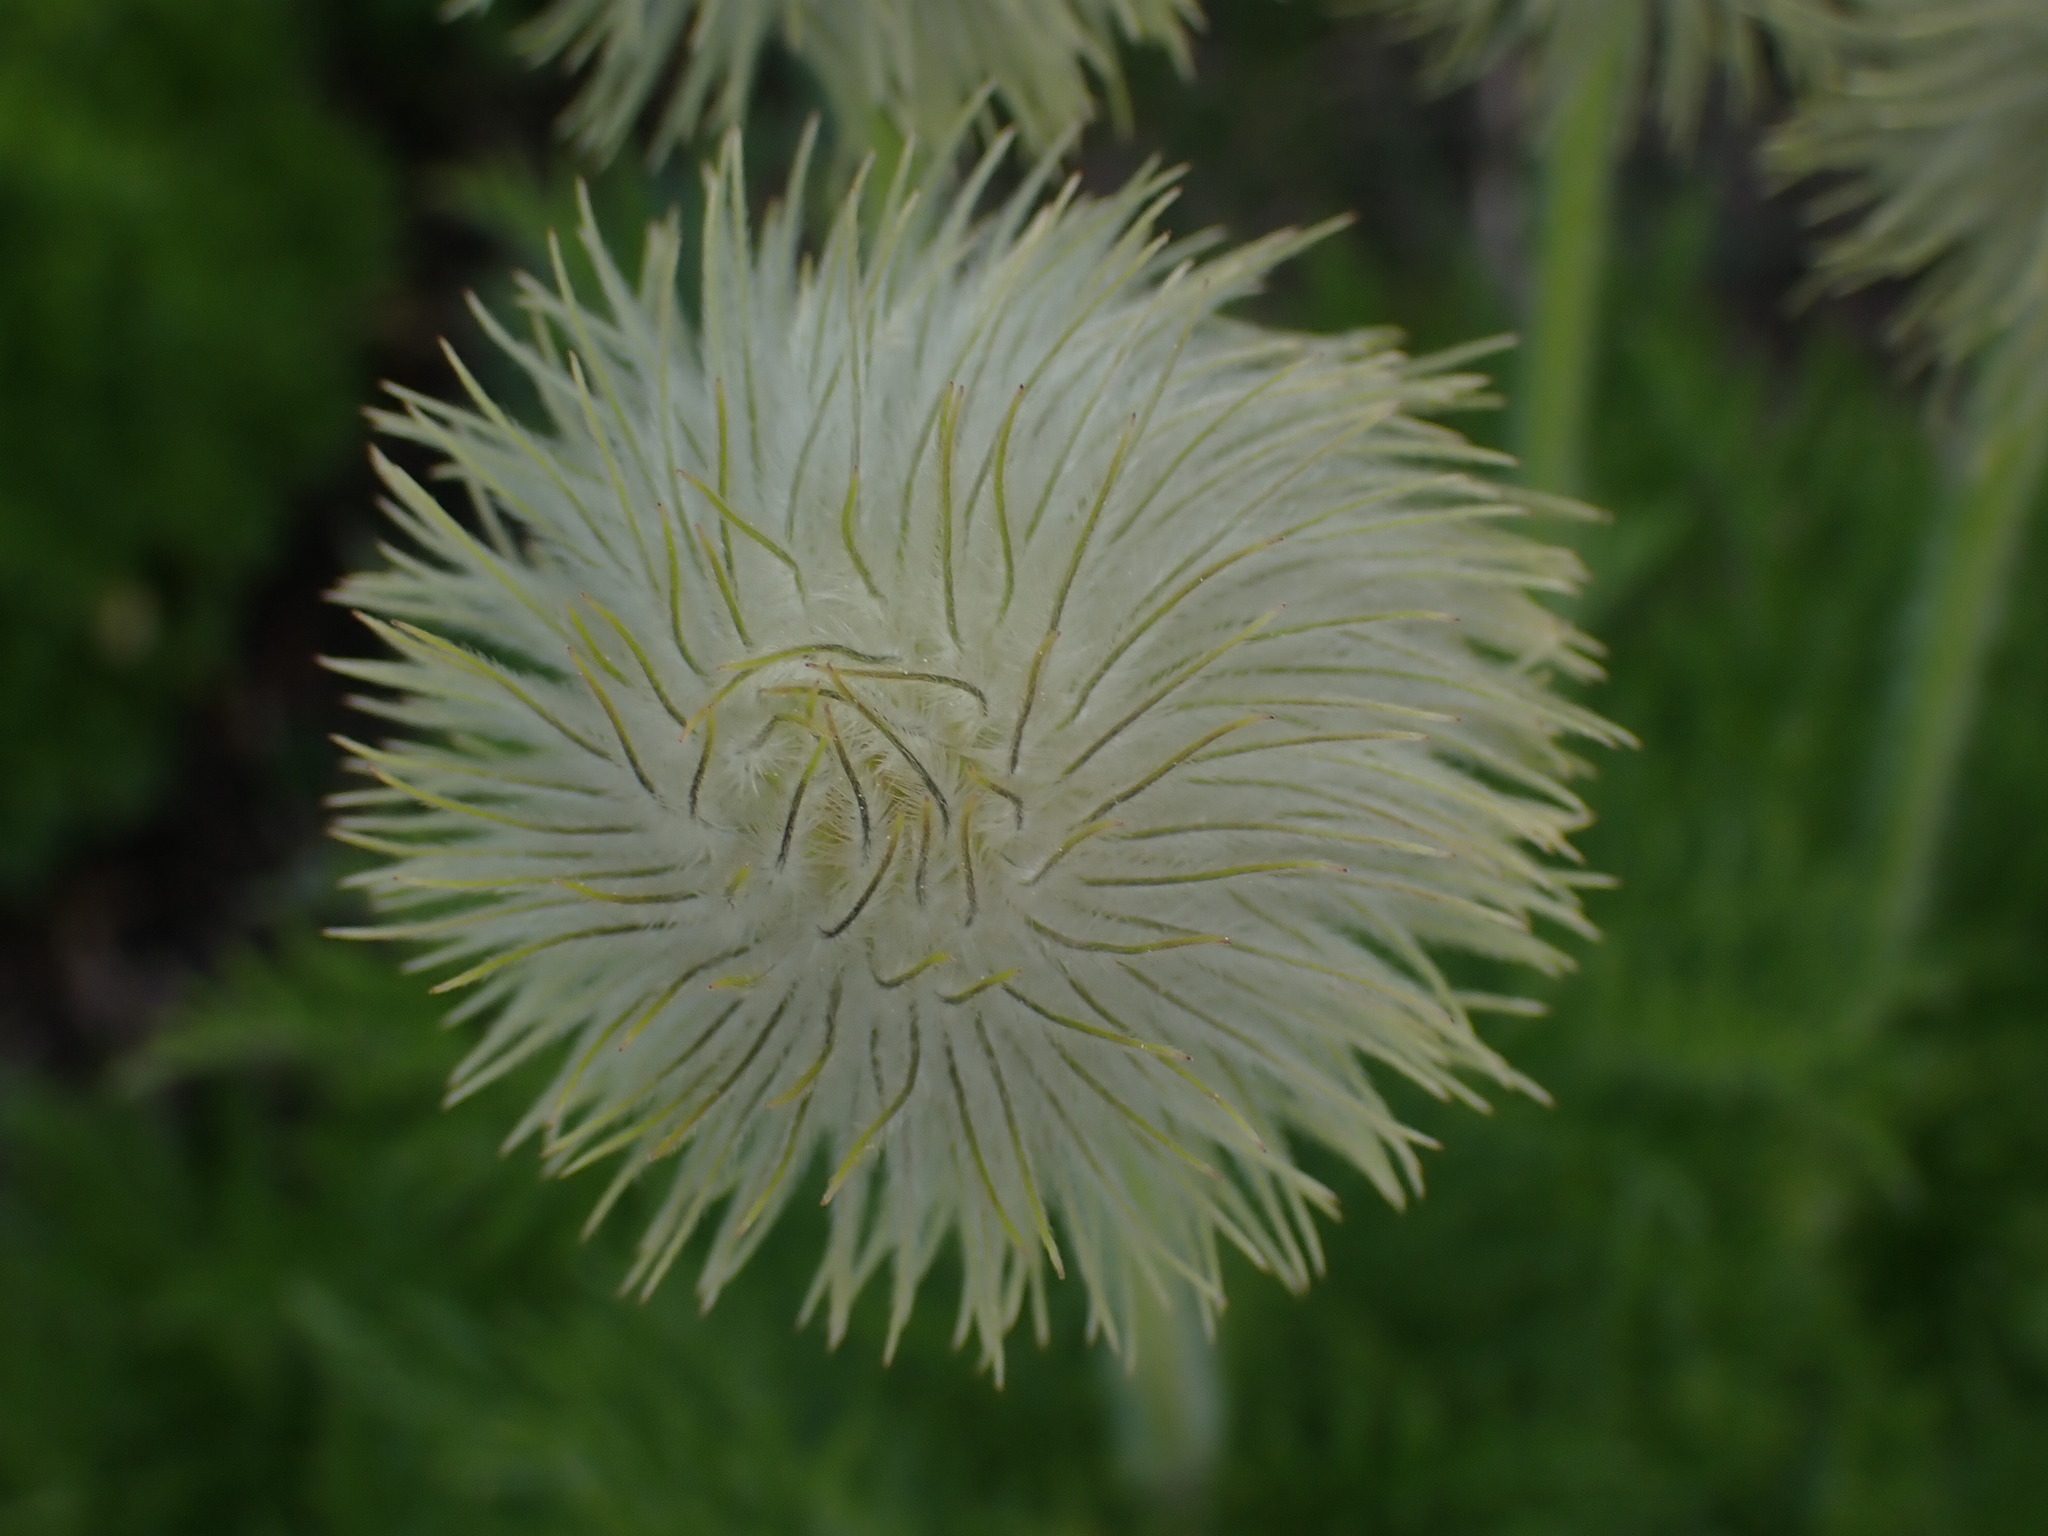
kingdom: Plantae
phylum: Tracheophyta
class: Magnoliopsida
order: Ranunculales
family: Ranunculaceae
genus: Pulsatilla
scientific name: Pulsatilla occidentalis
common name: Mountain pasqueflower
